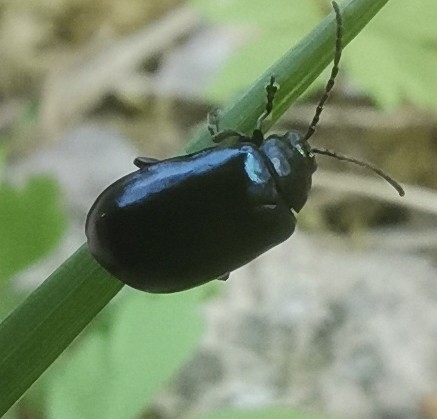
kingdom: Animalia
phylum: Arthropoda
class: Insecta
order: Coleoptera
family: Chrysomelidae
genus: Agelastica
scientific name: Agelastica alni
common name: Alder leaf beetle
